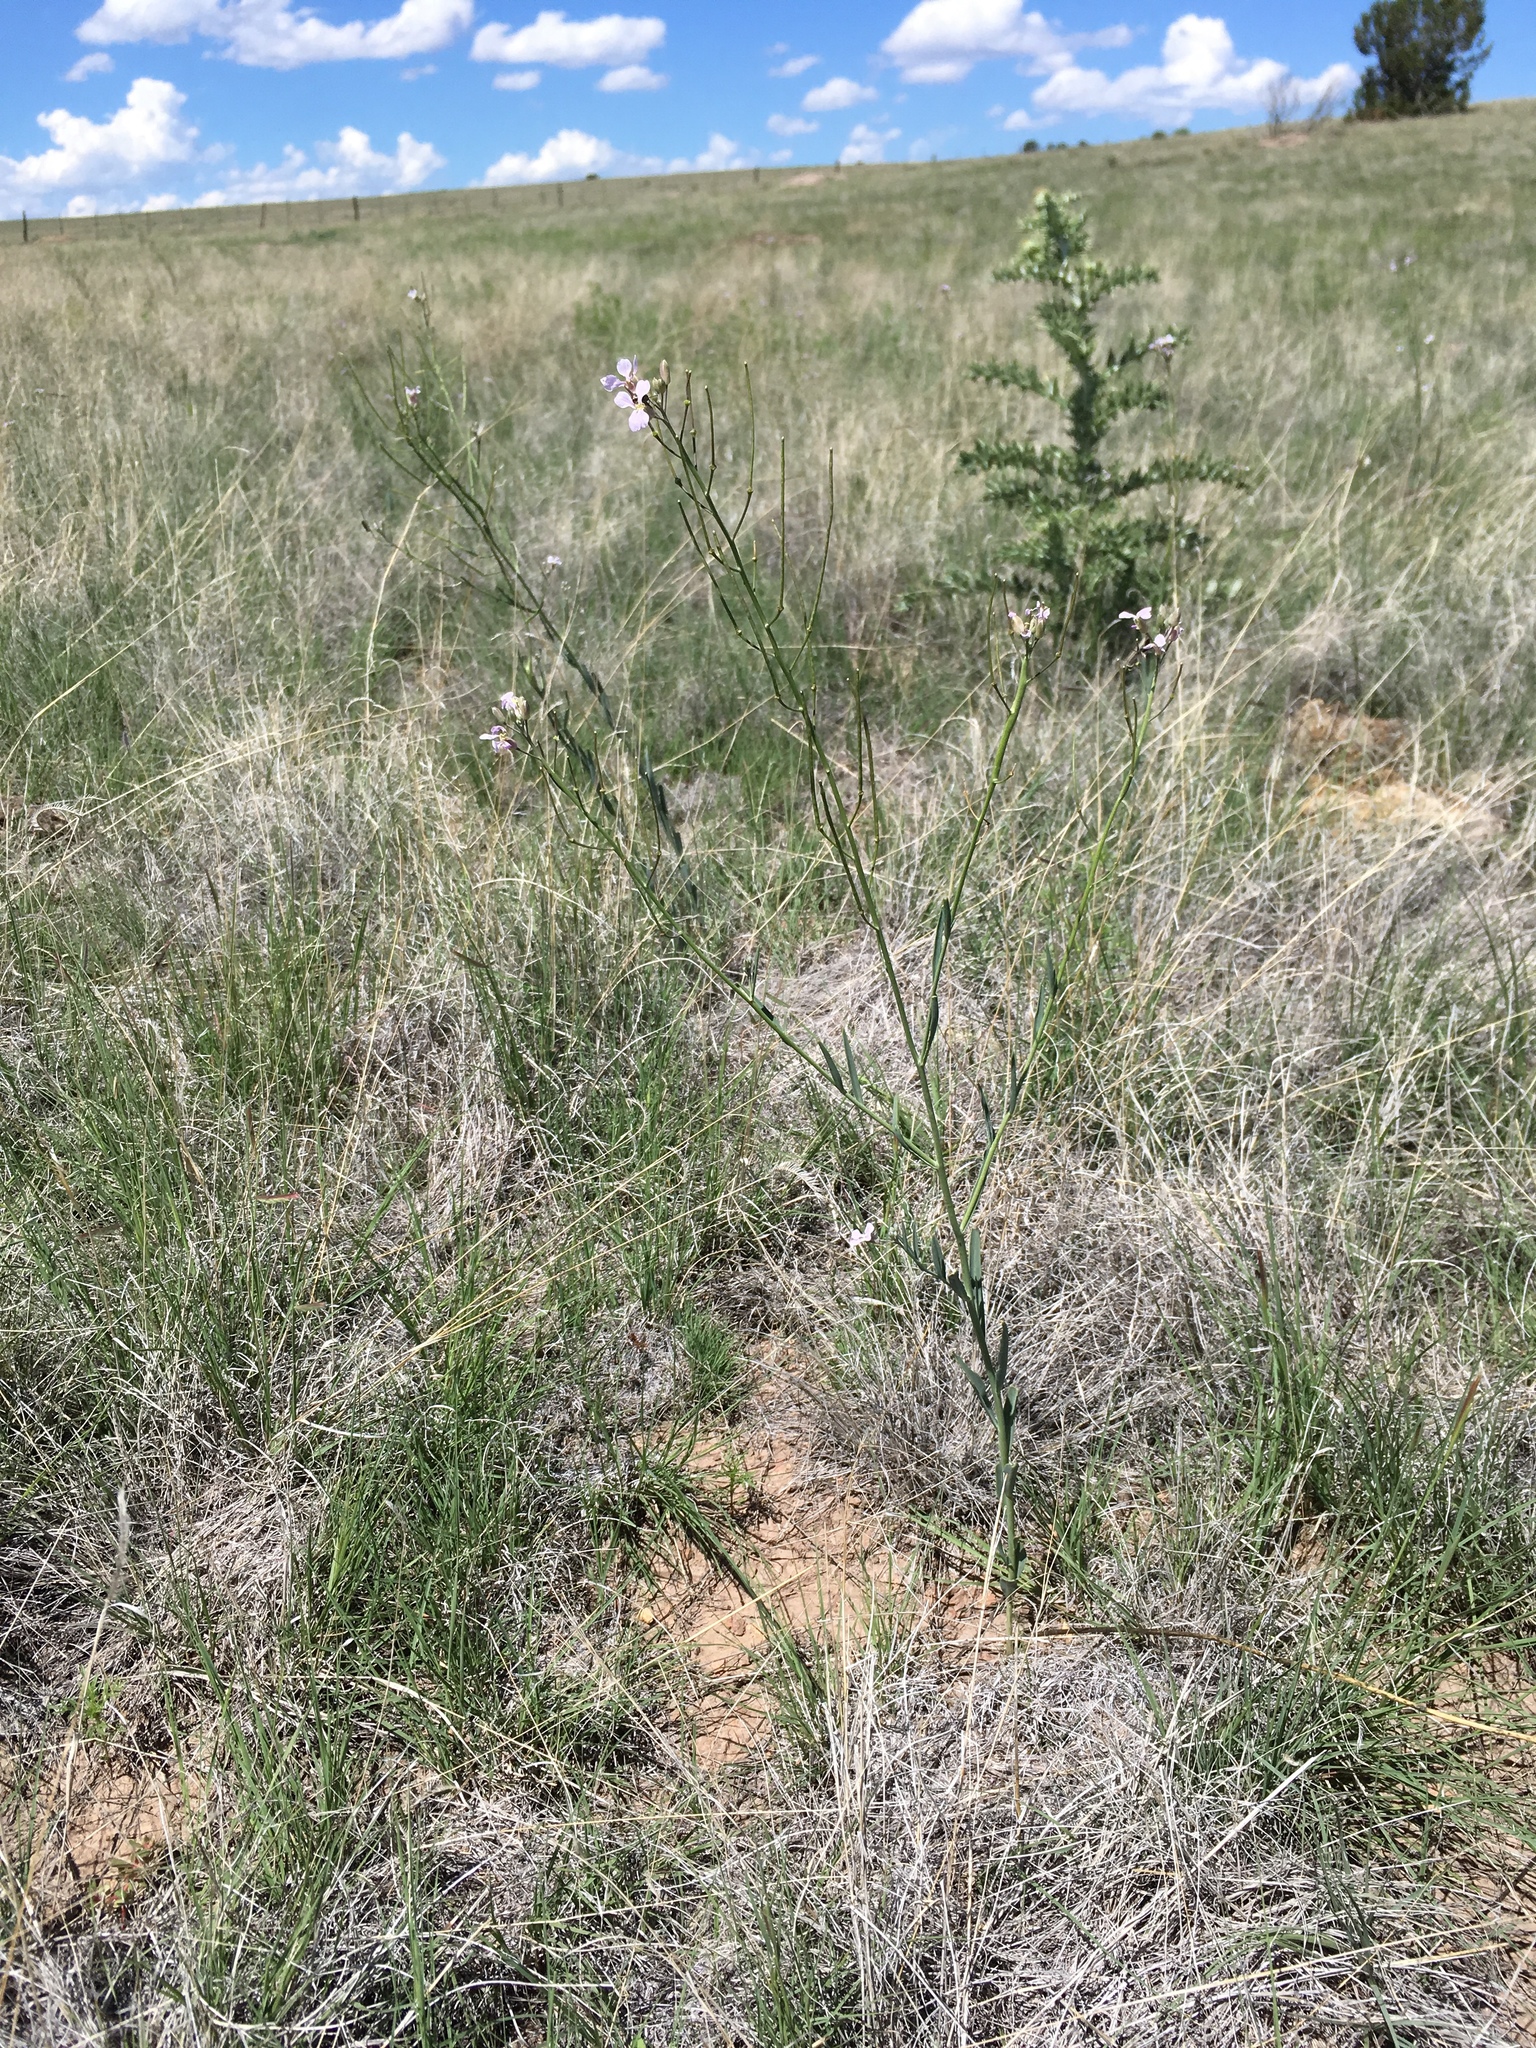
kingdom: Plantae
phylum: Tracheophyta
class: Magnoliopsida
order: Brassicales
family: Brassicaceae
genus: Hesperidanthus
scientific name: Hesperidanthus linearifolius
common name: Slim-leaf plains mustard
